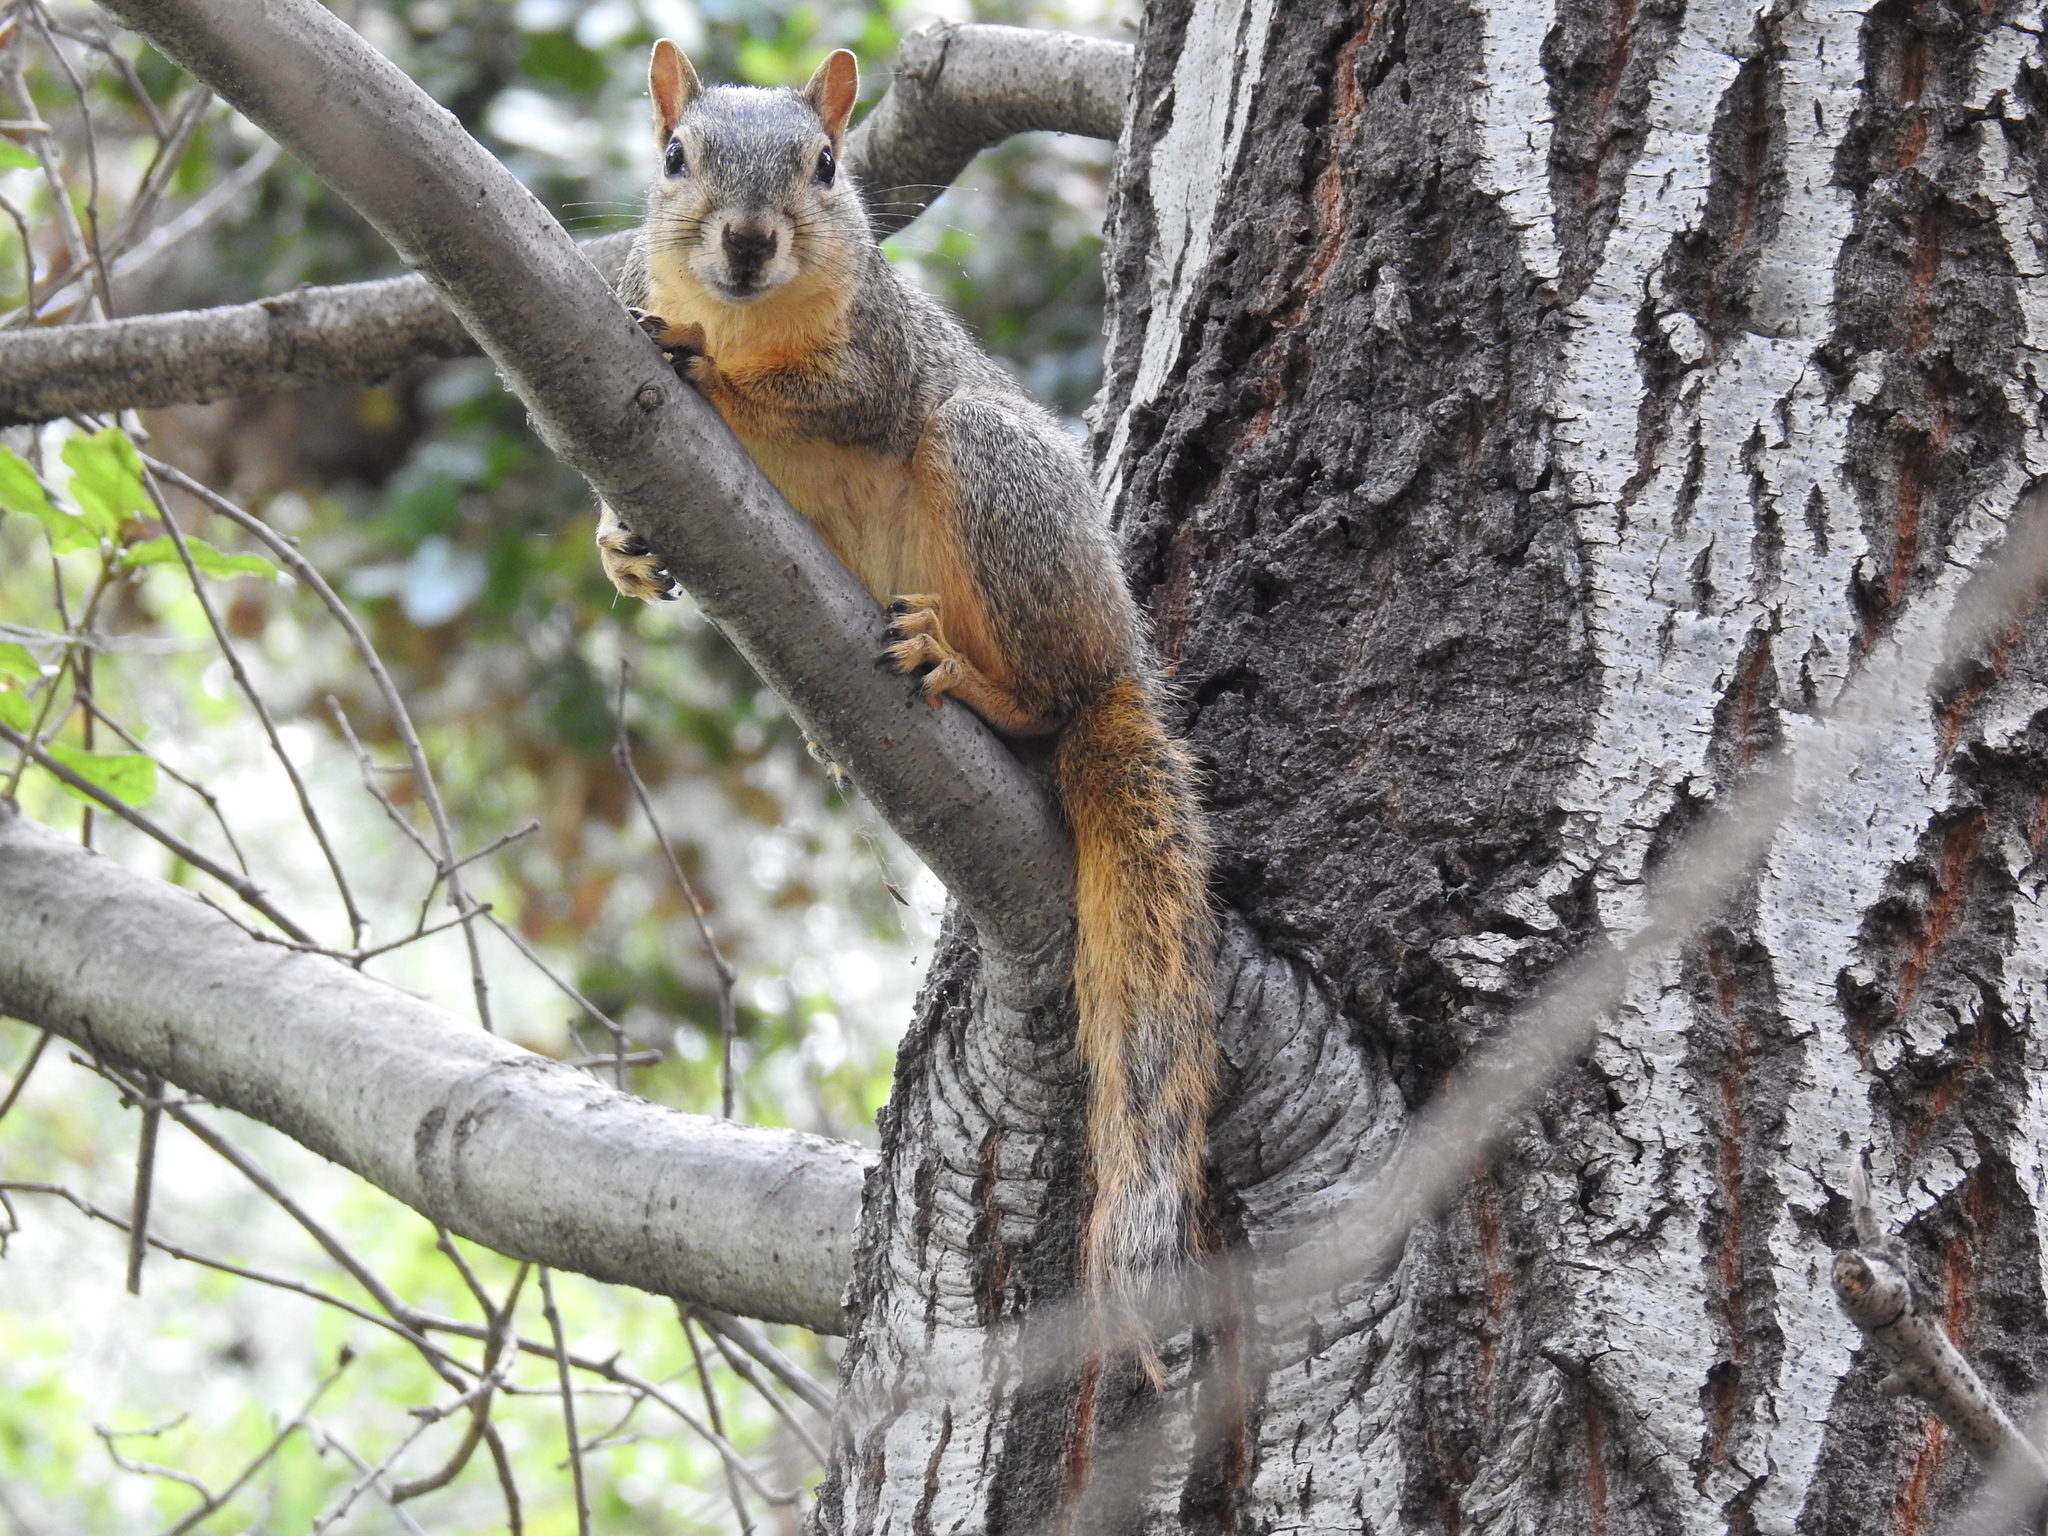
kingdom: Animalia
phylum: Chordata
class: Mammalia
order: Rodentia
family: Sciuridae
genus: Sciurus
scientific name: Sciurus niger
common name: Fox squirrel
